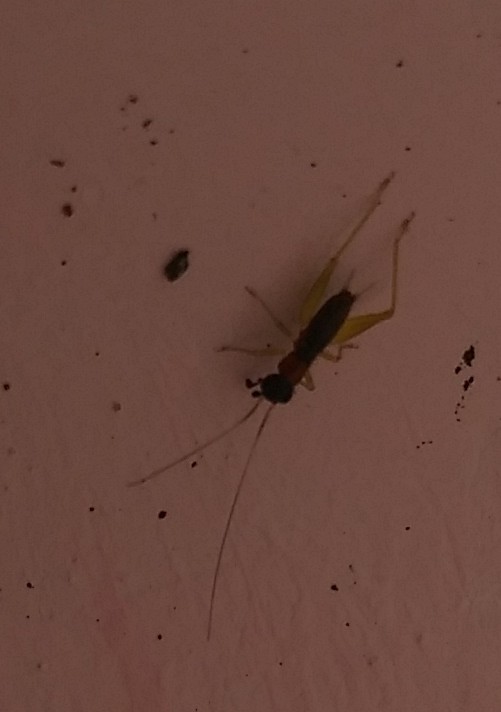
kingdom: Animalia
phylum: Arthropoda
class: Insecta
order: Orthoptera
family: Trigonidiidae
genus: Phyllopalpus
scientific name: Phyllopalpus pulchellus
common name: Handsome trig
